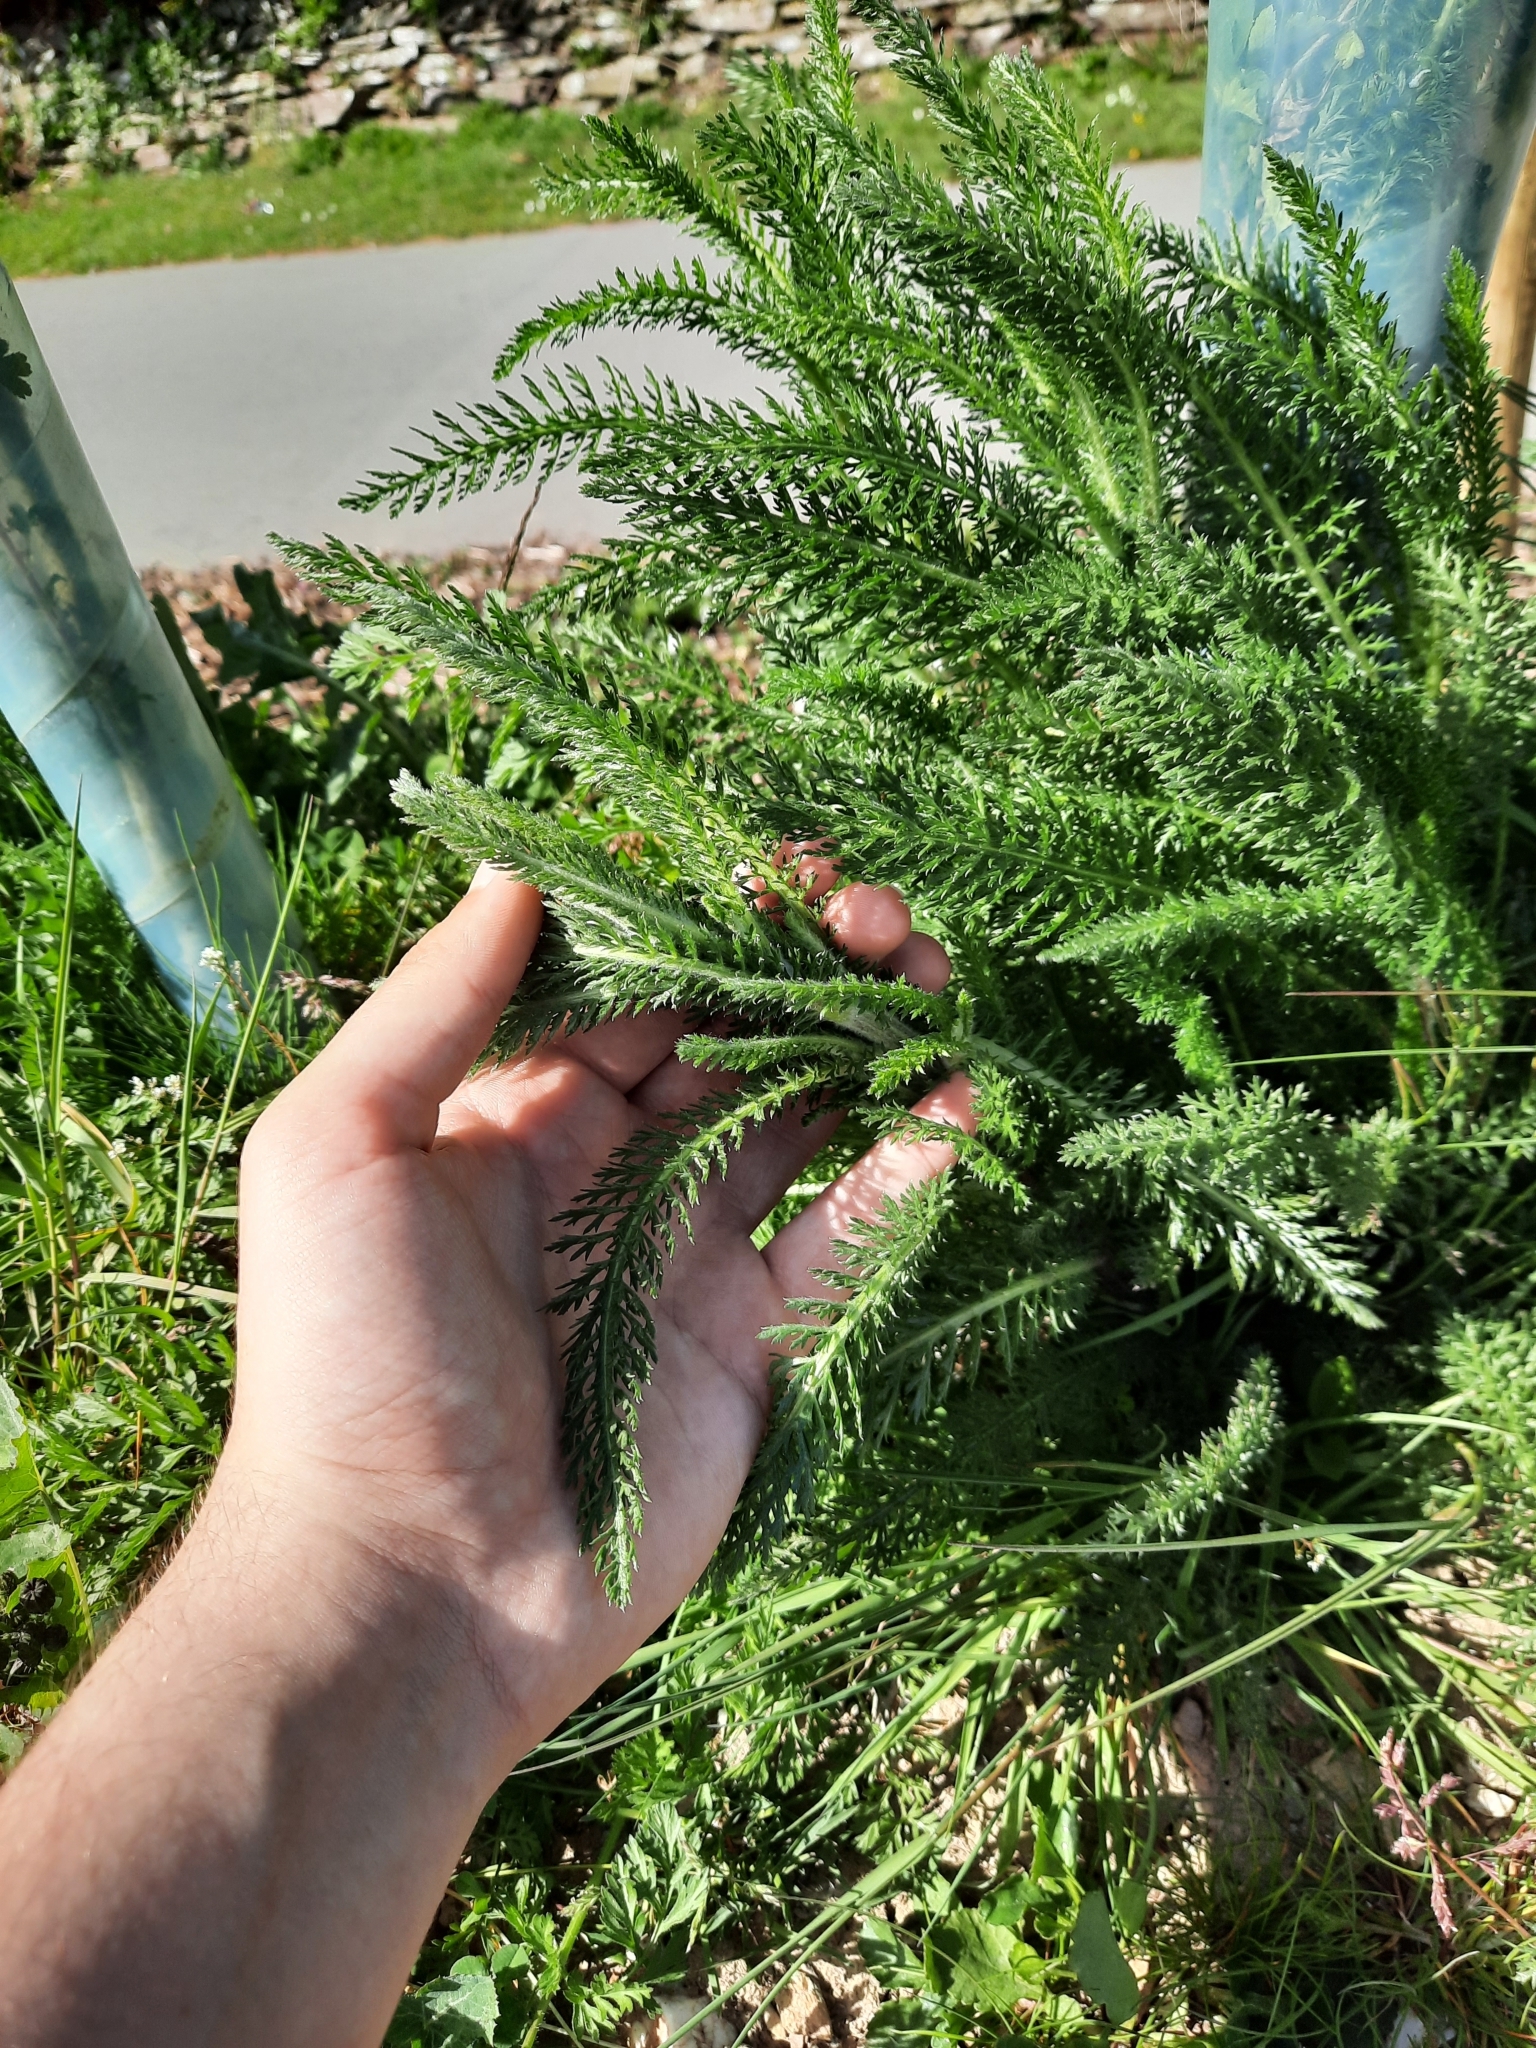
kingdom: Plantae
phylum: Tracheophyta
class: Magnoliopsida
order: Asterales
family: Asteraceae
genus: Achillea
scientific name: Achillea millefolium
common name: Yarrow
